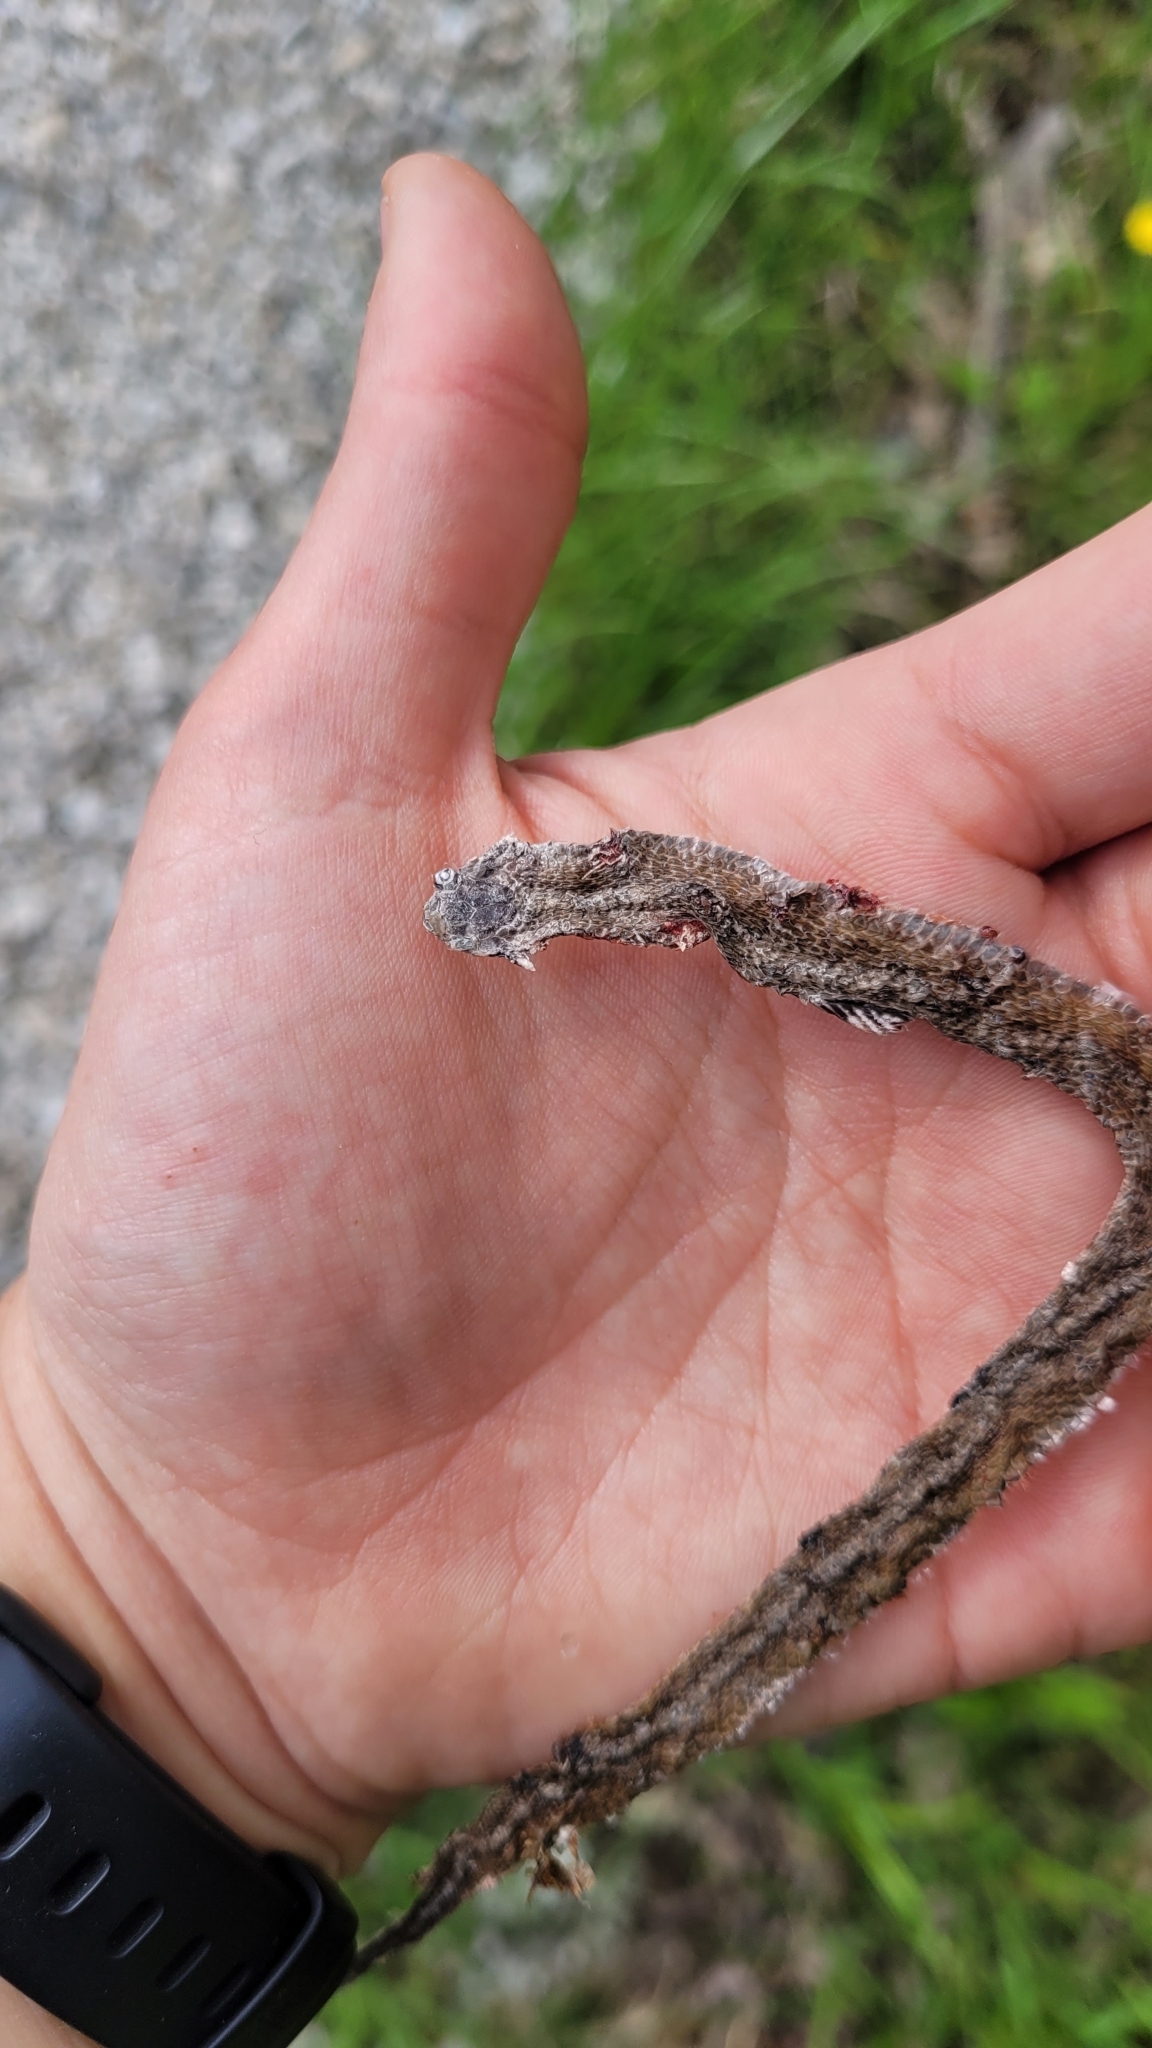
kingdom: Animalia
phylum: Chordata
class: Squamata
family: Colubridae
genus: Storeria
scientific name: Storeria dekayi
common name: (dekay’s) brown snake
